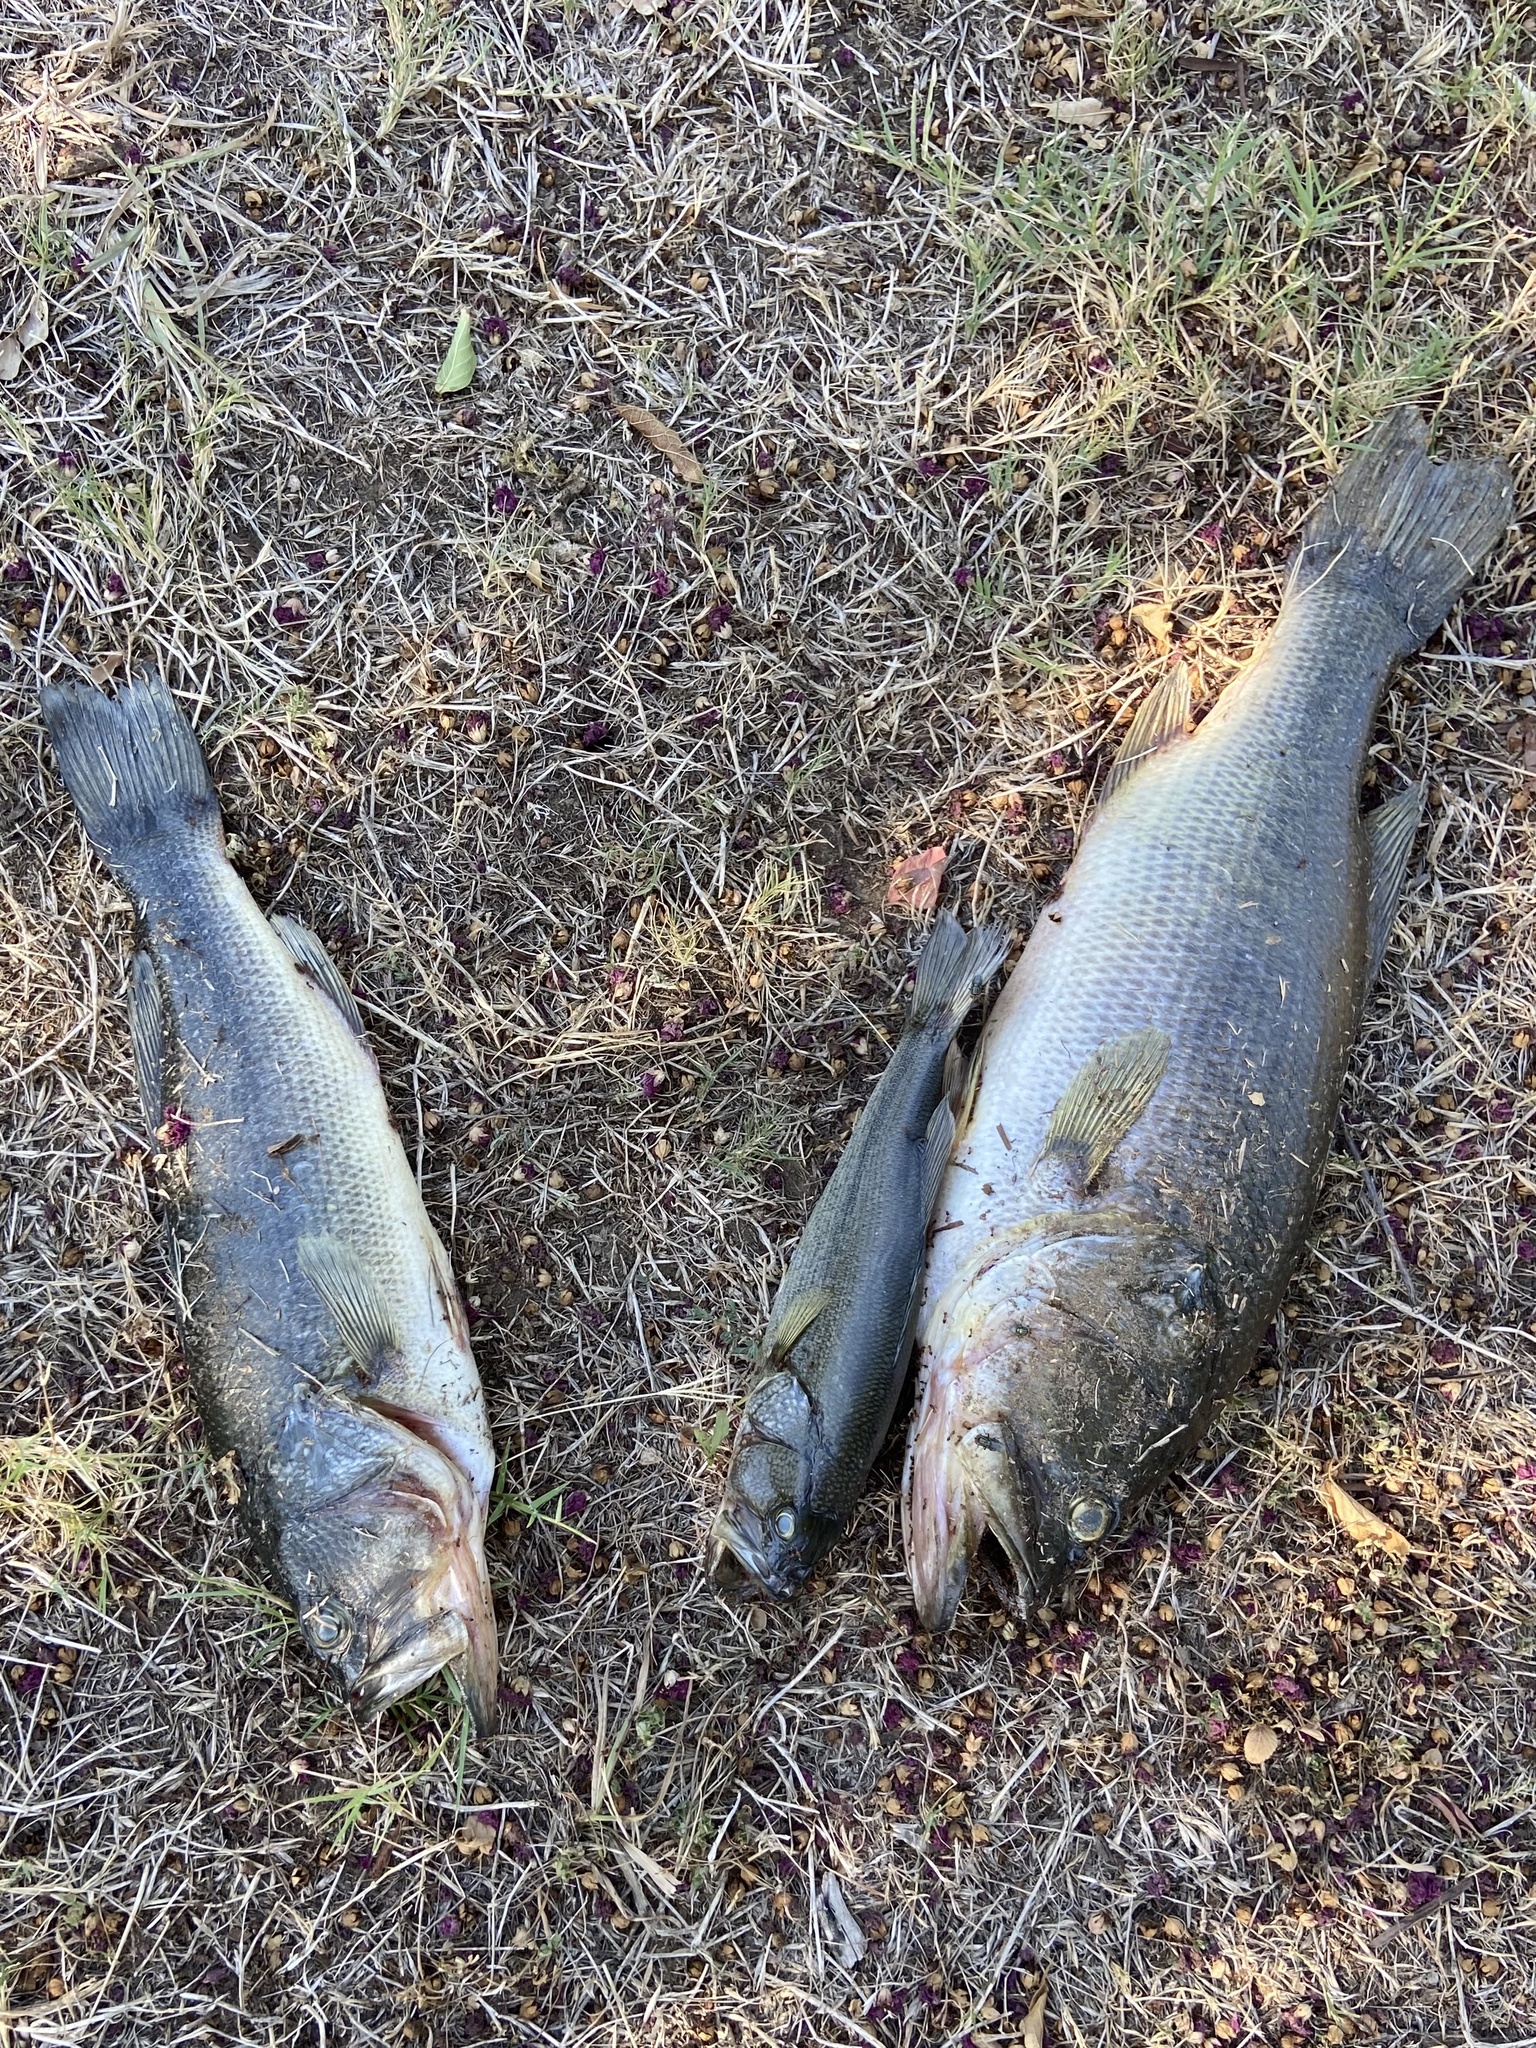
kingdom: Animalia
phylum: Chordata
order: Perciformes
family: Centrarchidae
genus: Micropterus
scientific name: Micropterus
